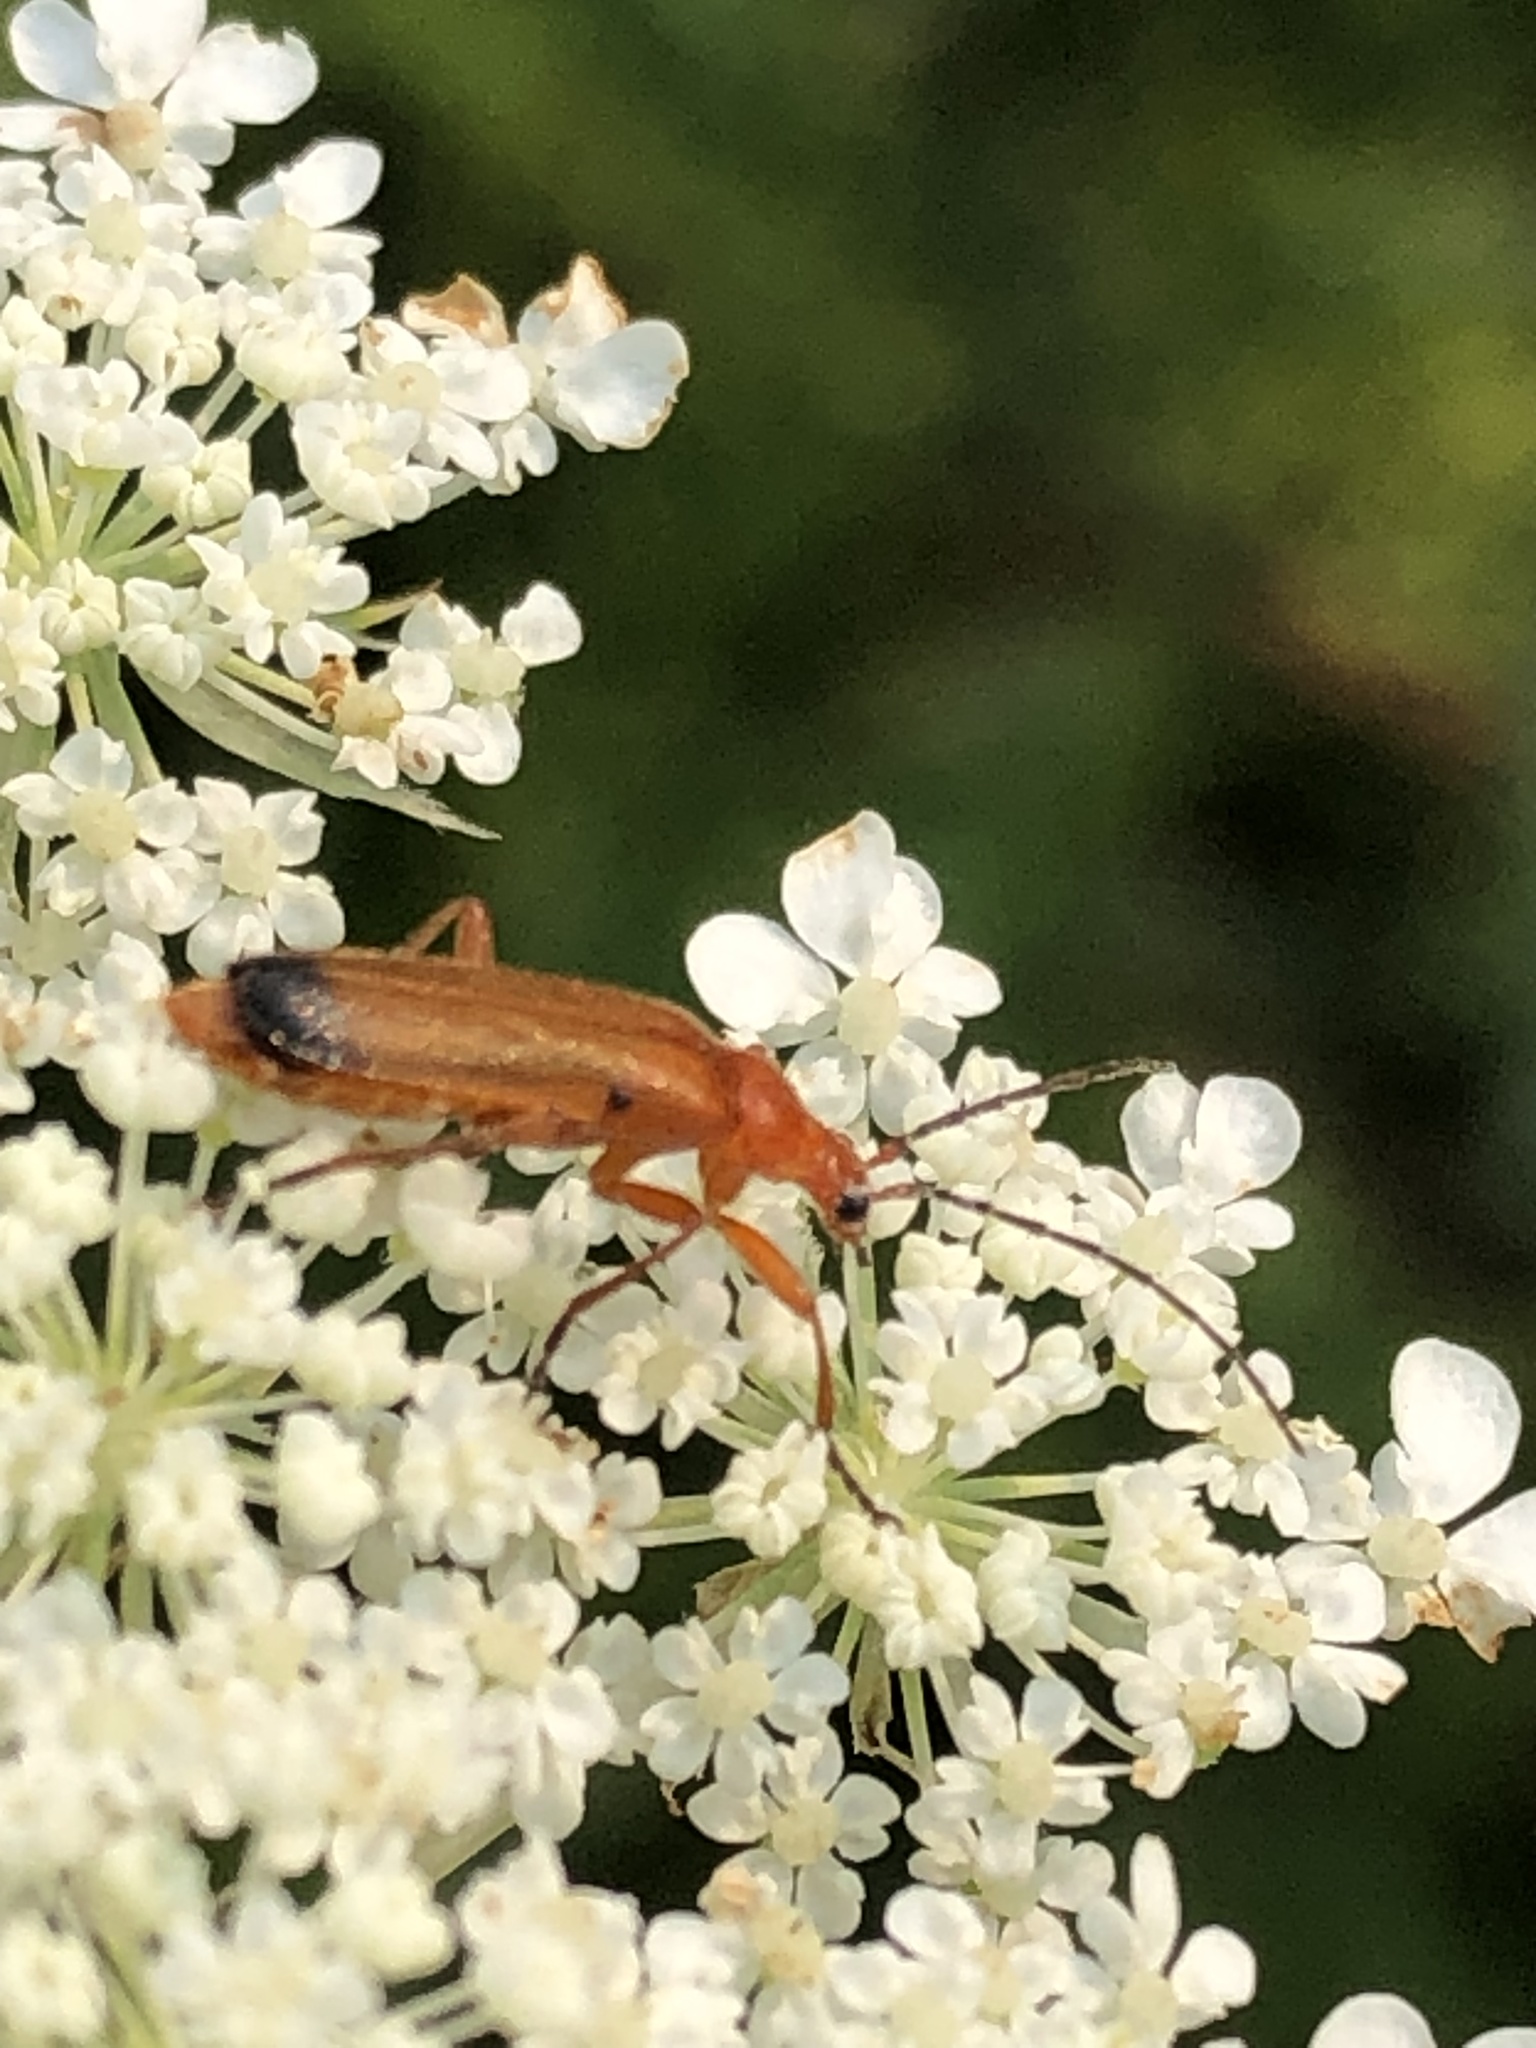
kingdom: Animalia
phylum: Arthropoda
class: Insecta
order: Coleoptera
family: Cantharidae
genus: Rhagonycha
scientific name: Rhagonycha fulva
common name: Common red soldier beetle
